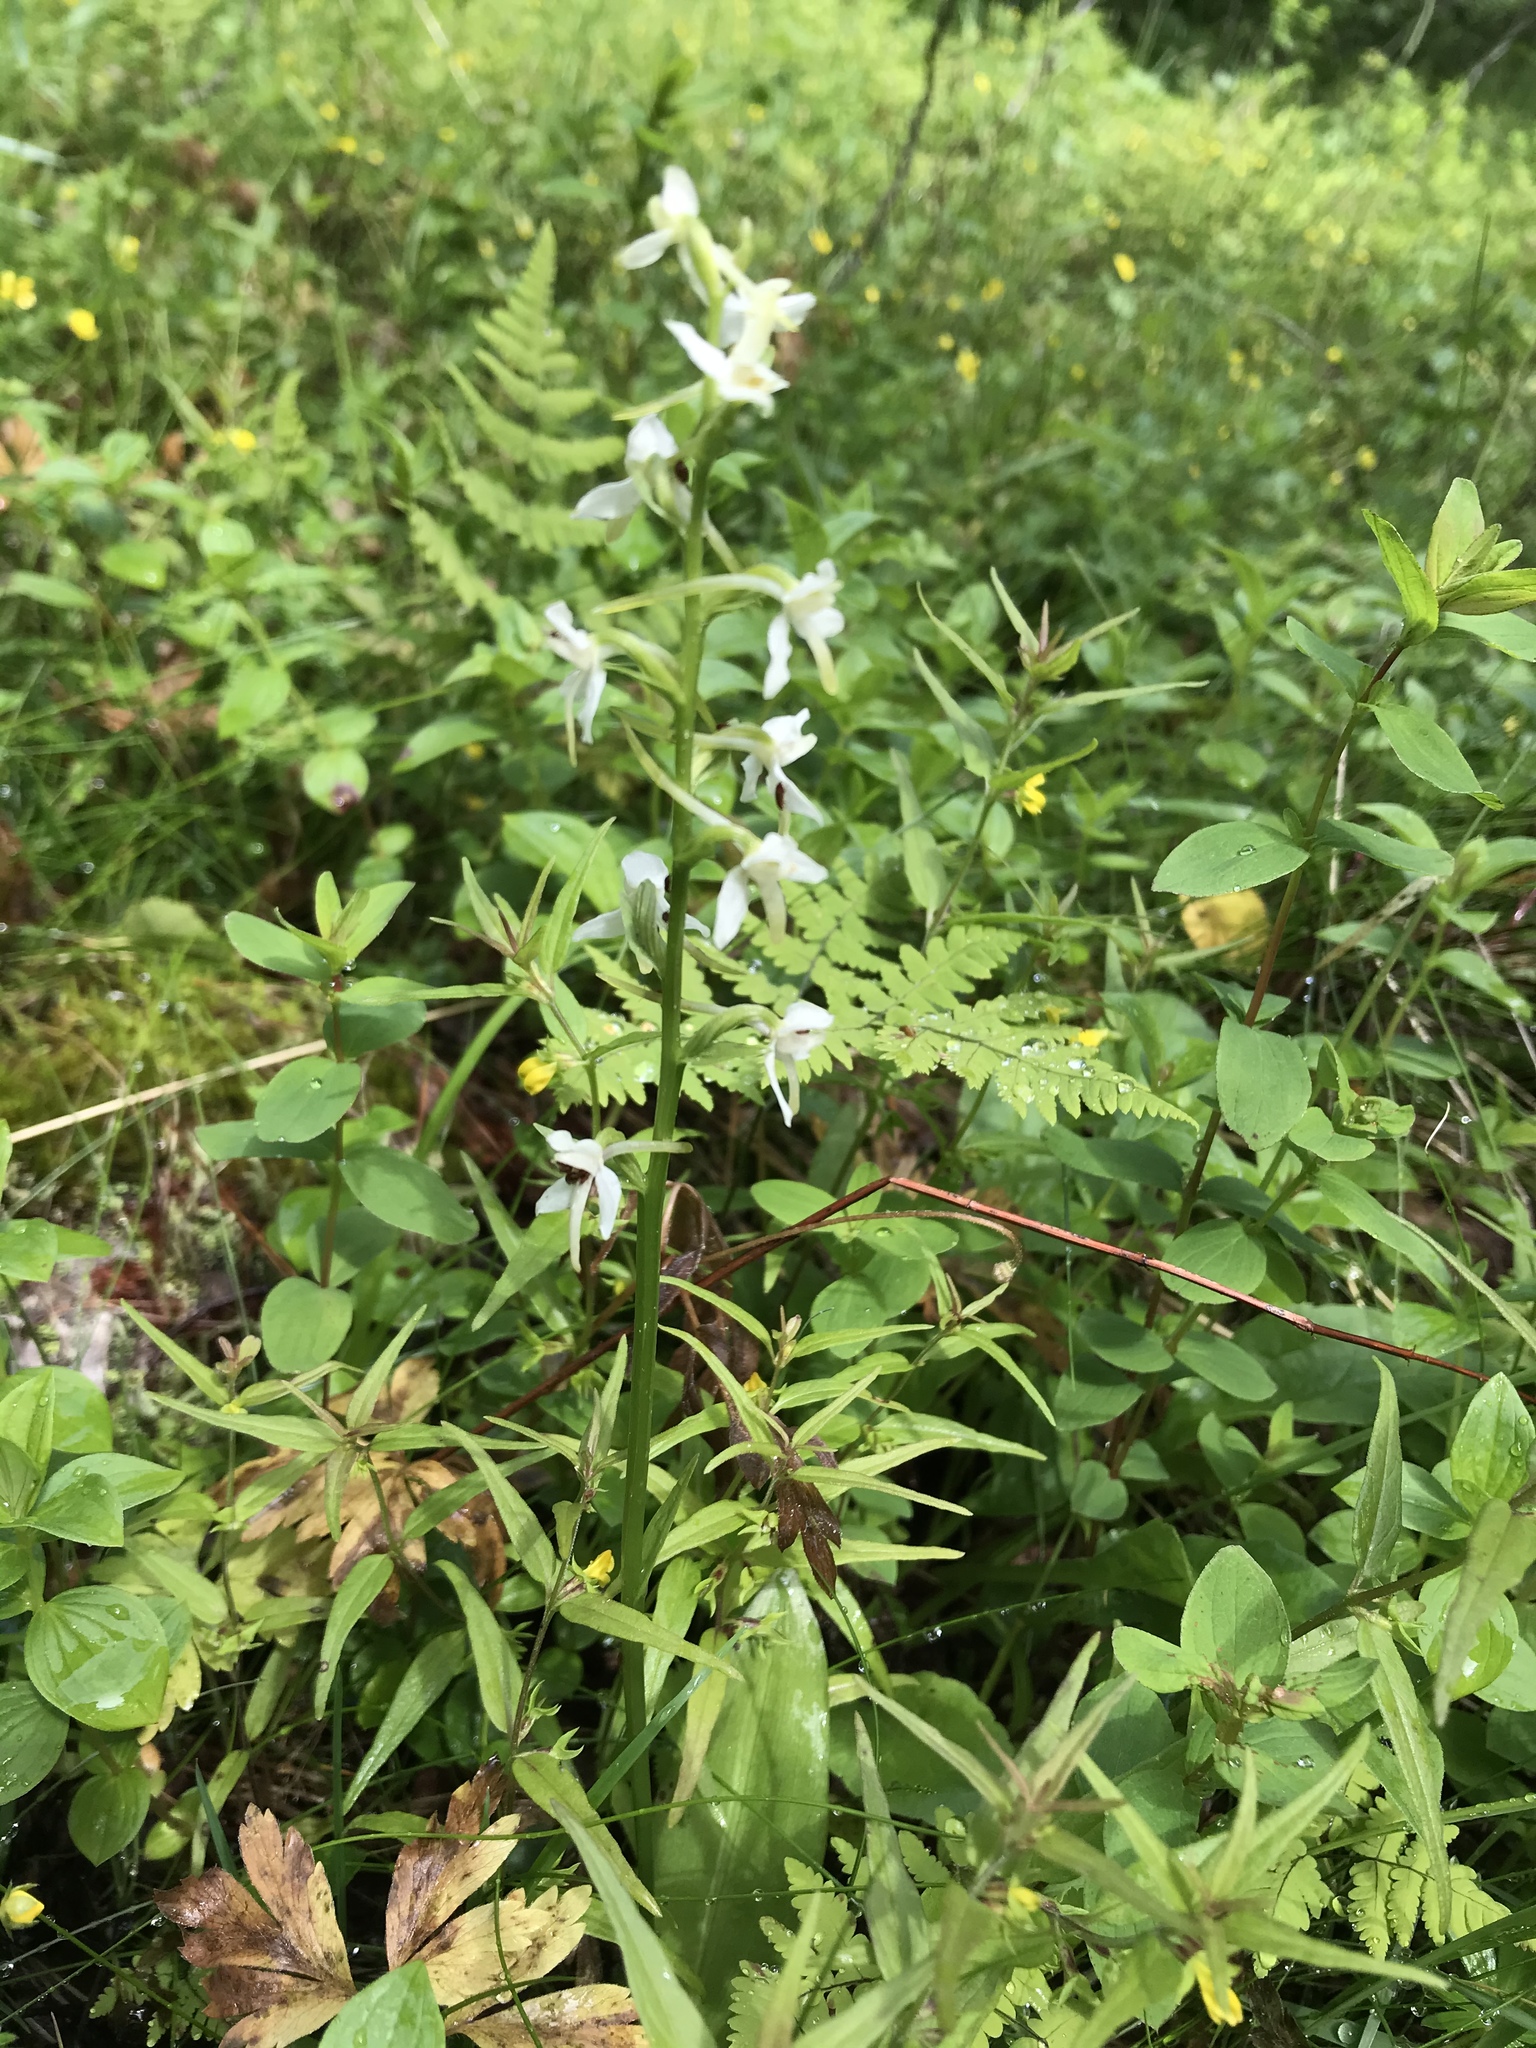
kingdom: Plantae
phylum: Tracheophyta
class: Liliopsida
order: Asparagales
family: Orchidaceae
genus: Platanthera
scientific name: Platanthera bifolia
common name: Lesser butterfly-orchid
